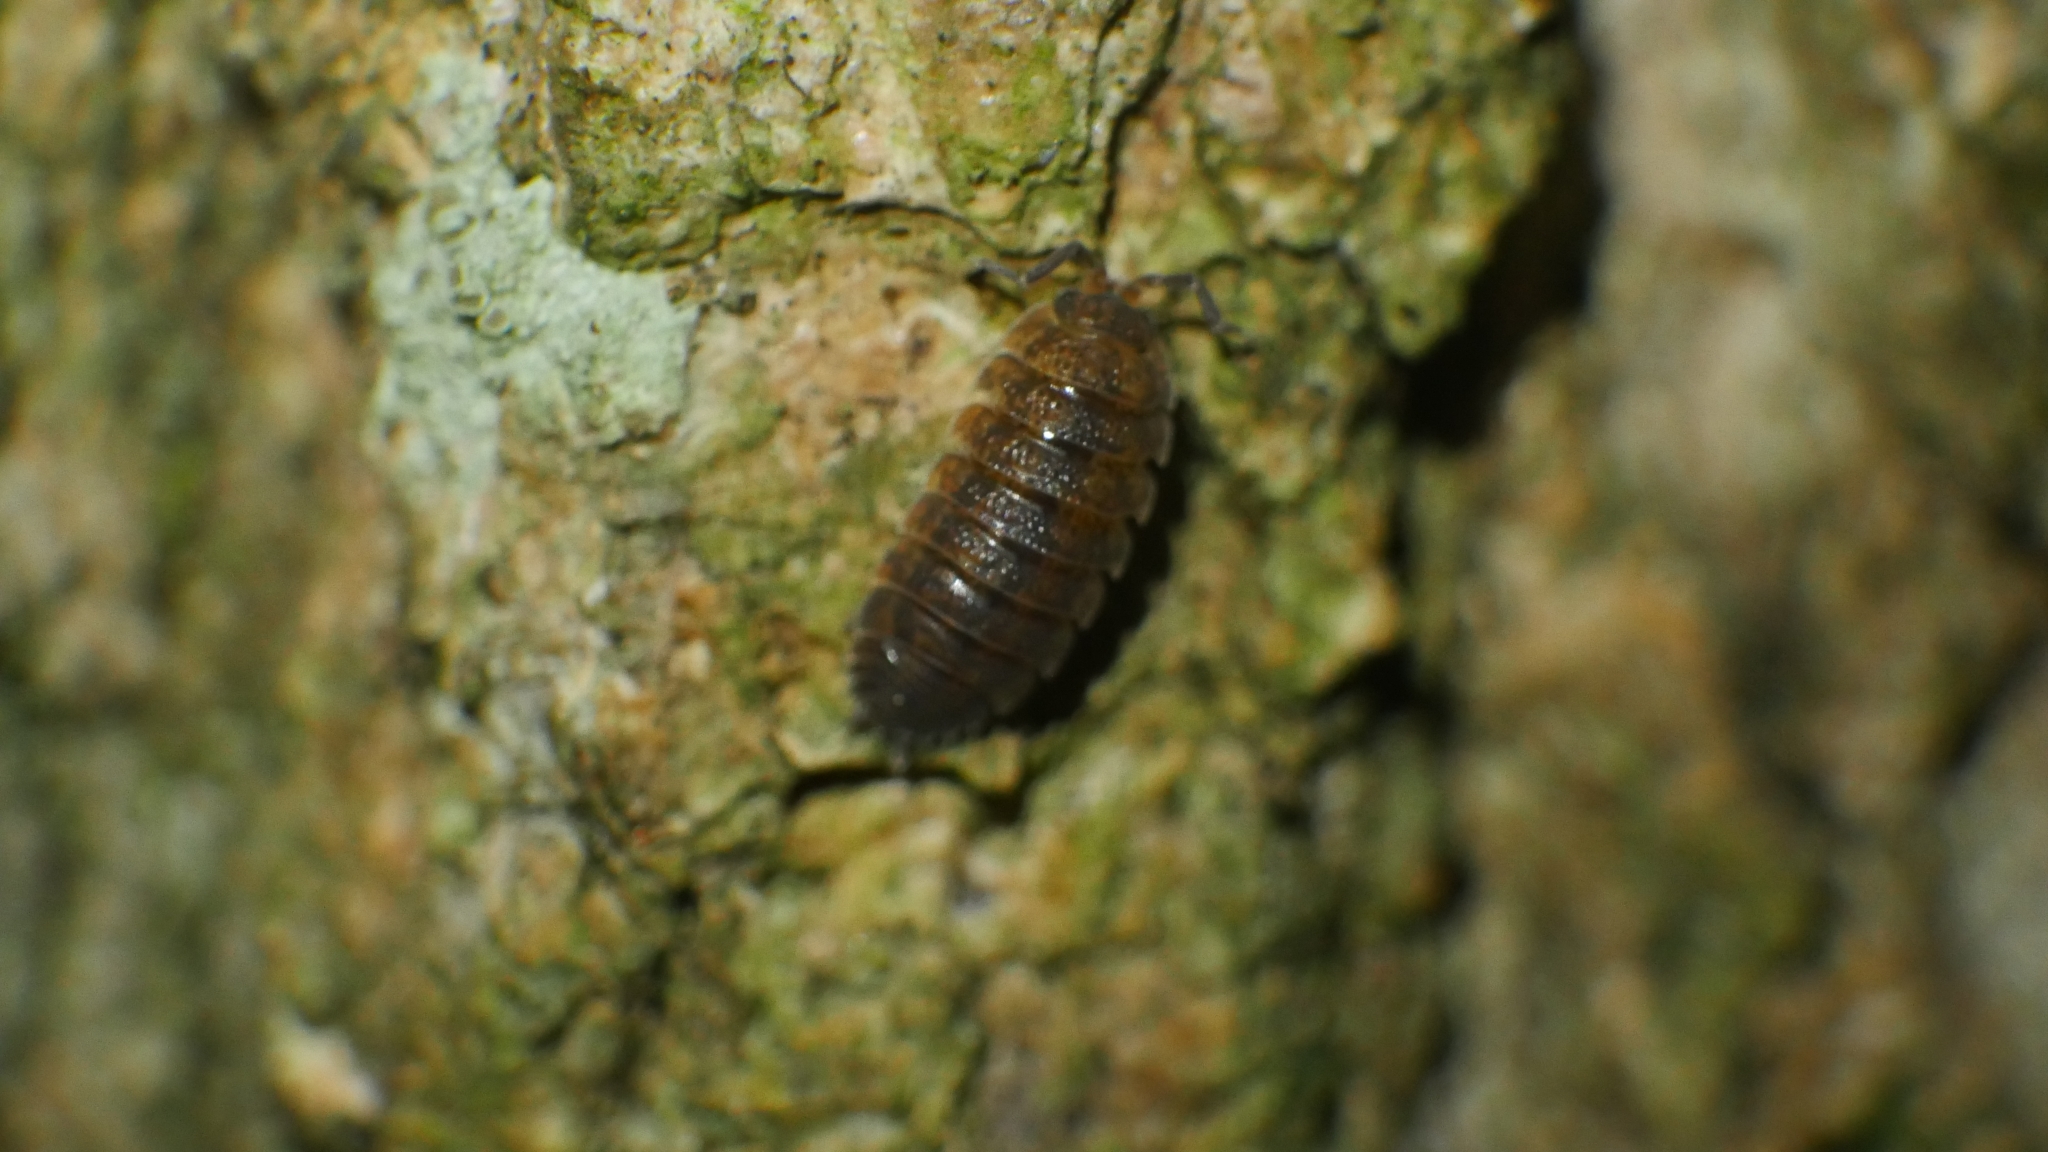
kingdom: Animalia
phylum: Arthropoda
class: Malacostraca
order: Isopoda
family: Porcellionidae
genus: Porcellio
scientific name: Porcellio scaber
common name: Common rough woodlouse
